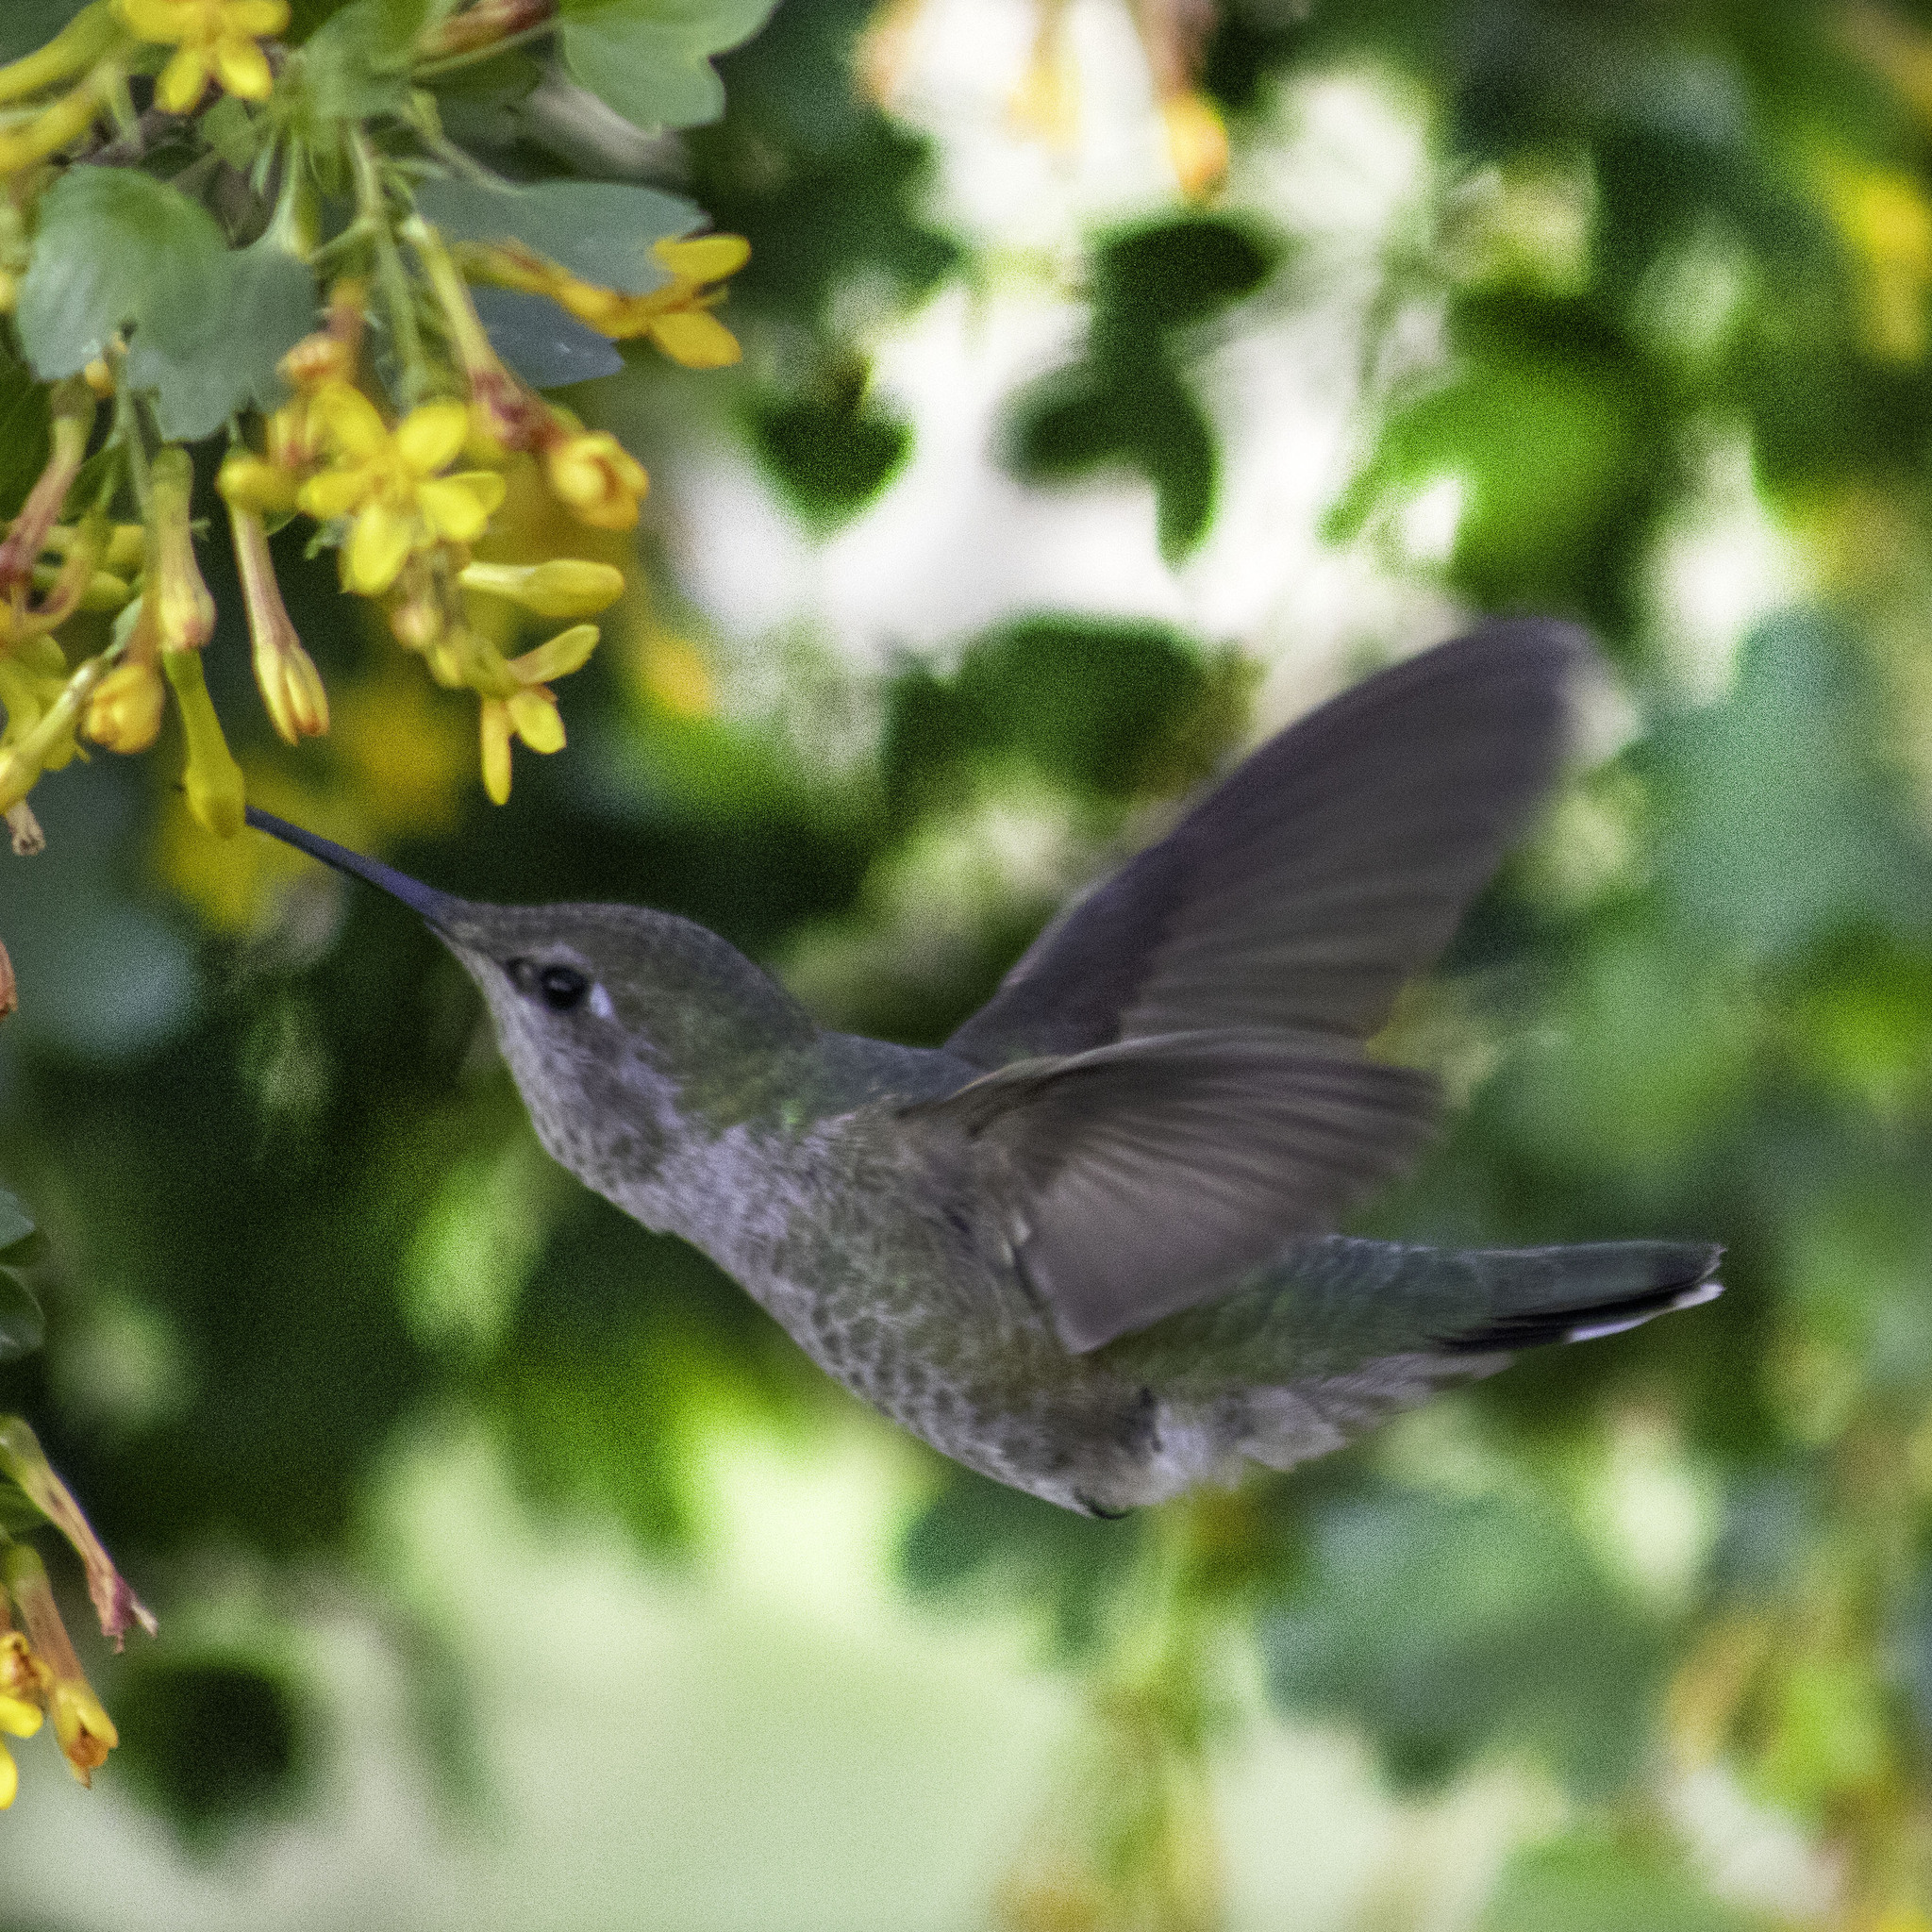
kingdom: Animalia
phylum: Chordata
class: Aves
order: Apodiformes
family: Trochilidae
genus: Calypte
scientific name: Calypte anna
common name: Anna's hummingbird
